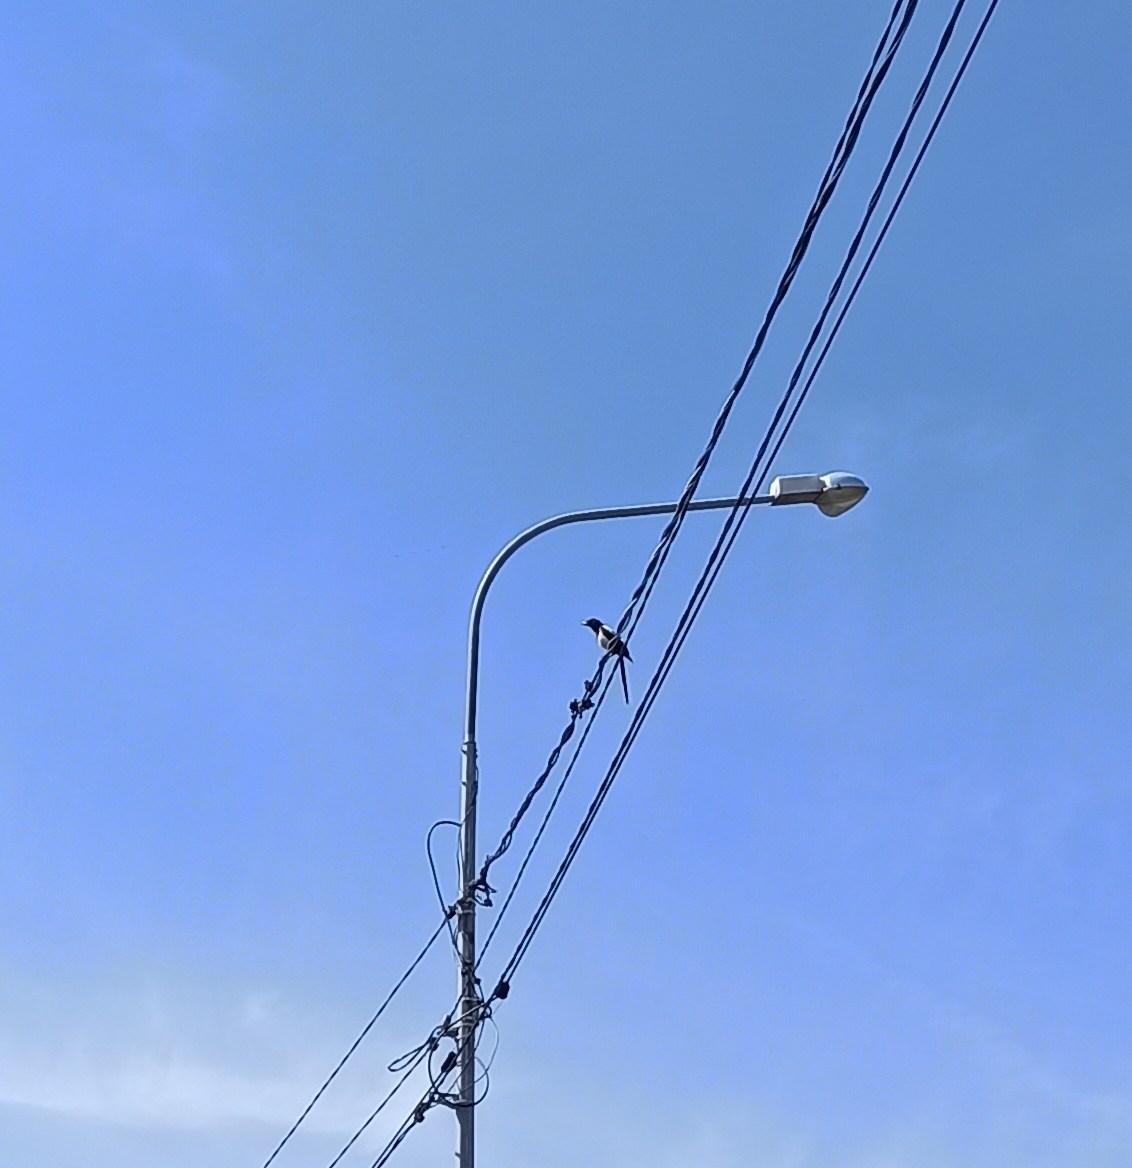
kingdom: Animalia
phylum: Chordata
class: Aves
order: Passeriformes
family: Corvidae
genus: Pica
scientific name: Pica pica
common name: Eurasian magpie
